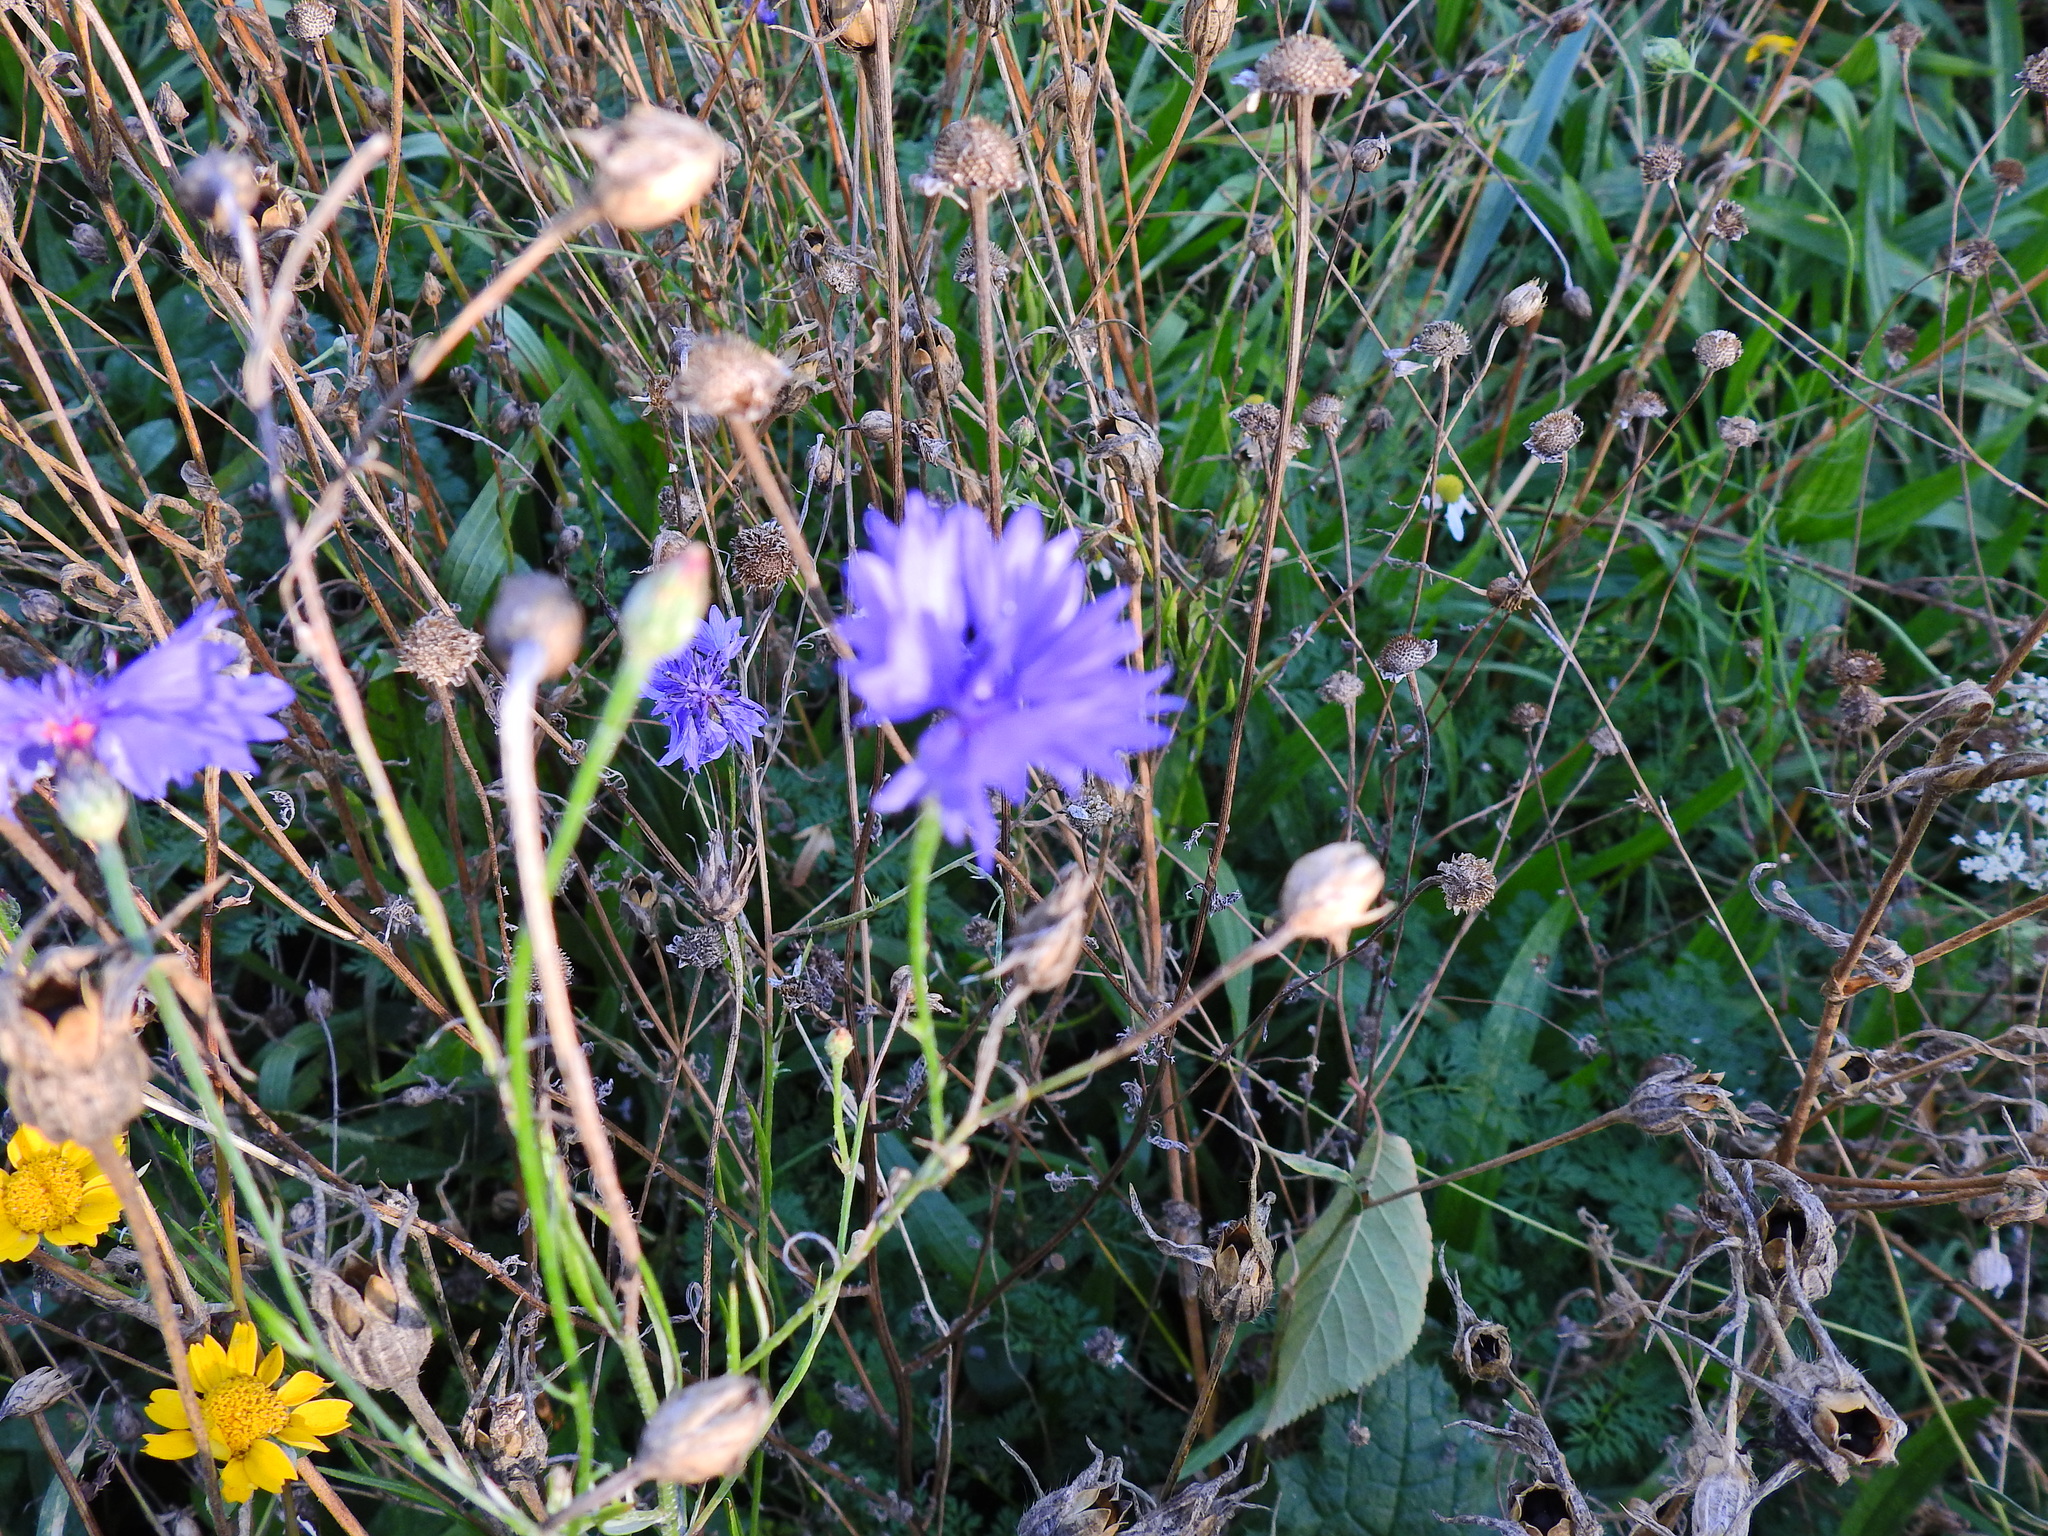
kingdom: Plantae
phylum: Tracheophyta
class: Magnoliopsida
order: Asterales
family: Asteraceae
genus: Centaurea
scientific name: Centaurea cyanus
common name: Cornflower
